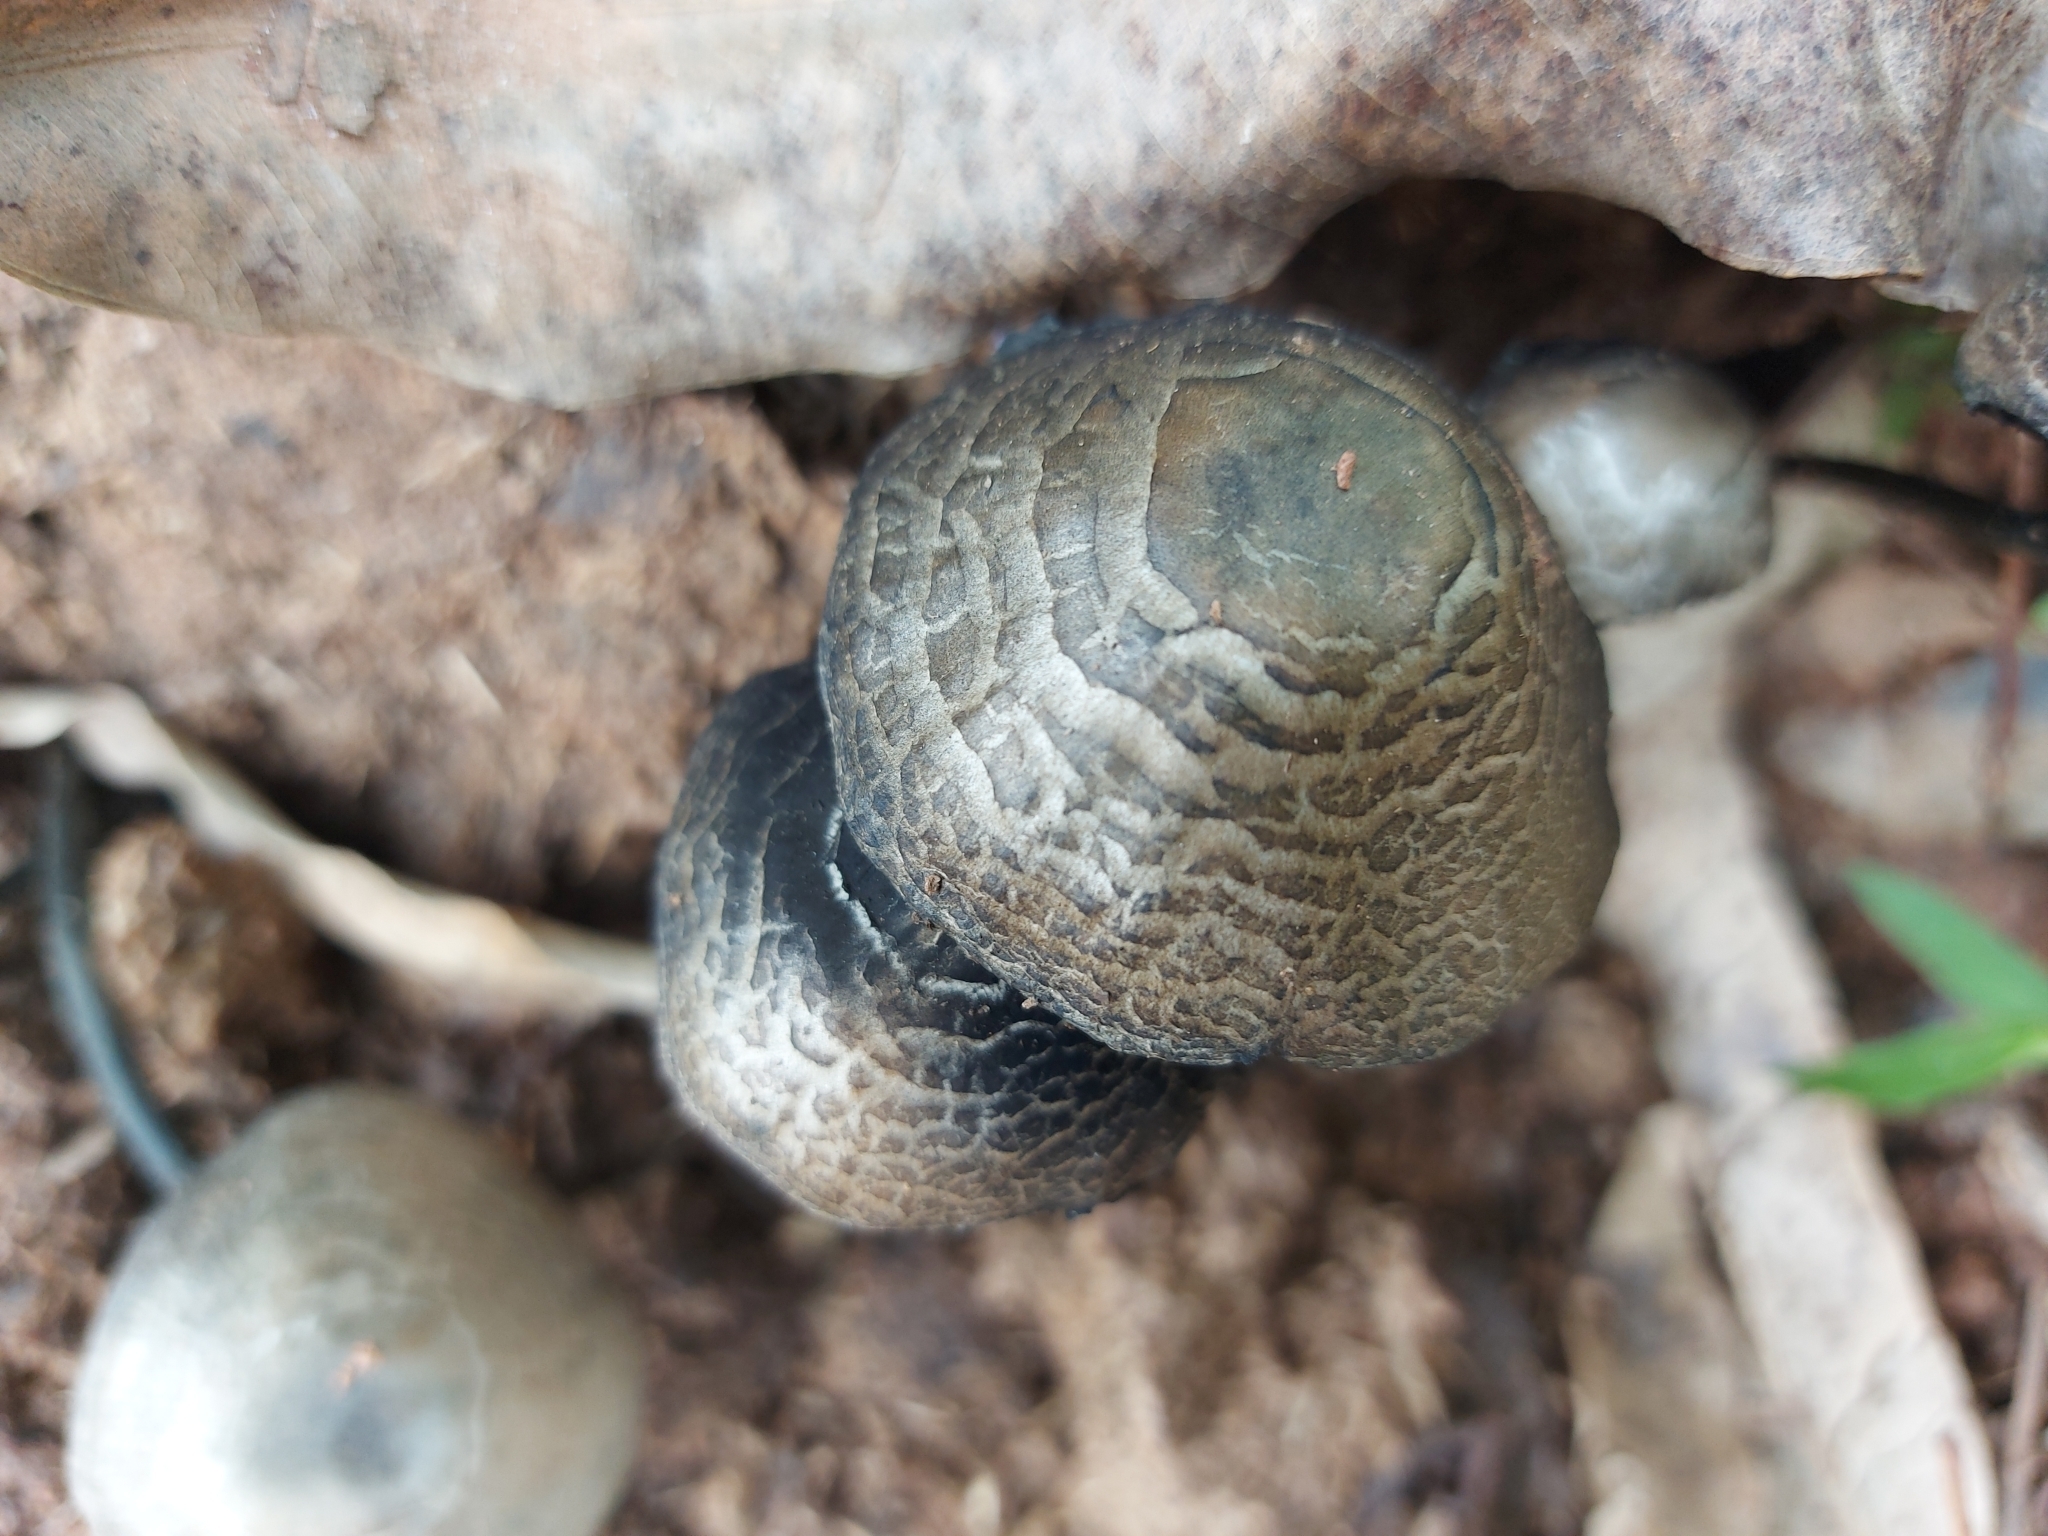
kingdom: Fungi
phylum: Basidiomycota
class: Agaricomycetes
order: Agaricales
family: Bolbitiaceae
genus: Panaeolus
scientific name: Panaeolus cyanescens
